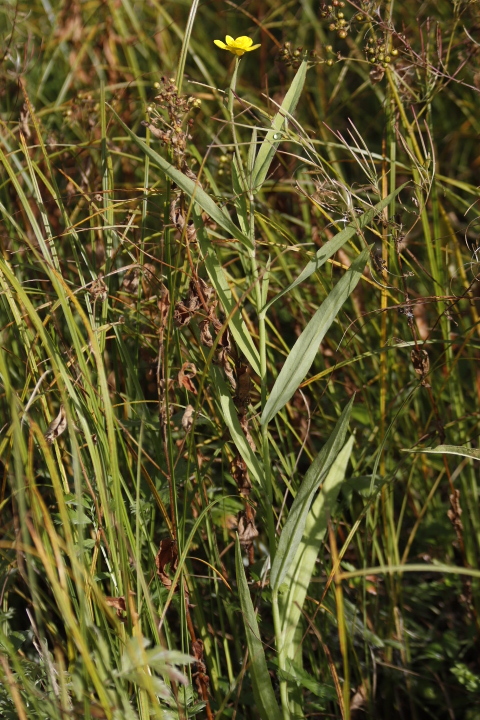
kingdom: Plantae
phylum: Tracheophyta
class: Magnoliopsida
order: Ranunculales
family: Ranunculaceae
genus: Ranunculus
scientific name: Ranunculus lingua
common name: Greater spearwort
